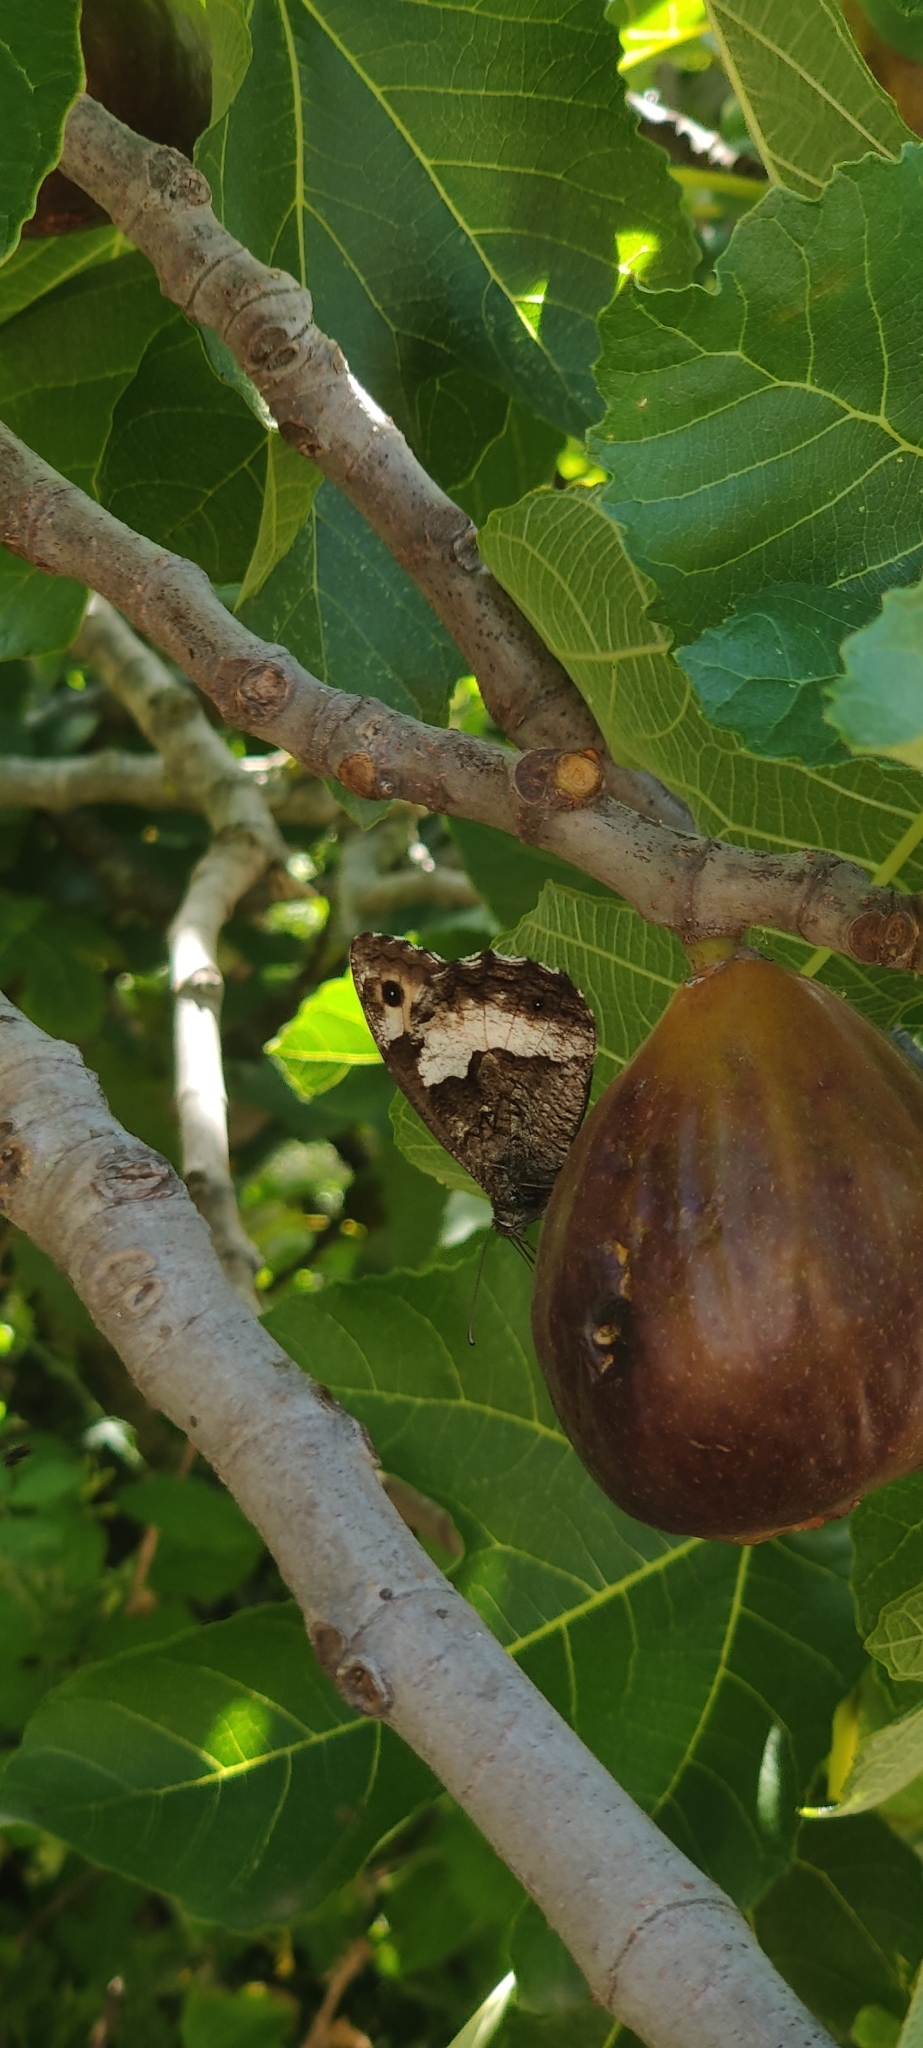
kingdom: Animalia
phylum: Arthropoda
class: Insecta
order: Lepidoptera
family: Nymphalidae
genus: Hipparchia
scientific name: Hipparchia fagi
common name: Woodland grayling
